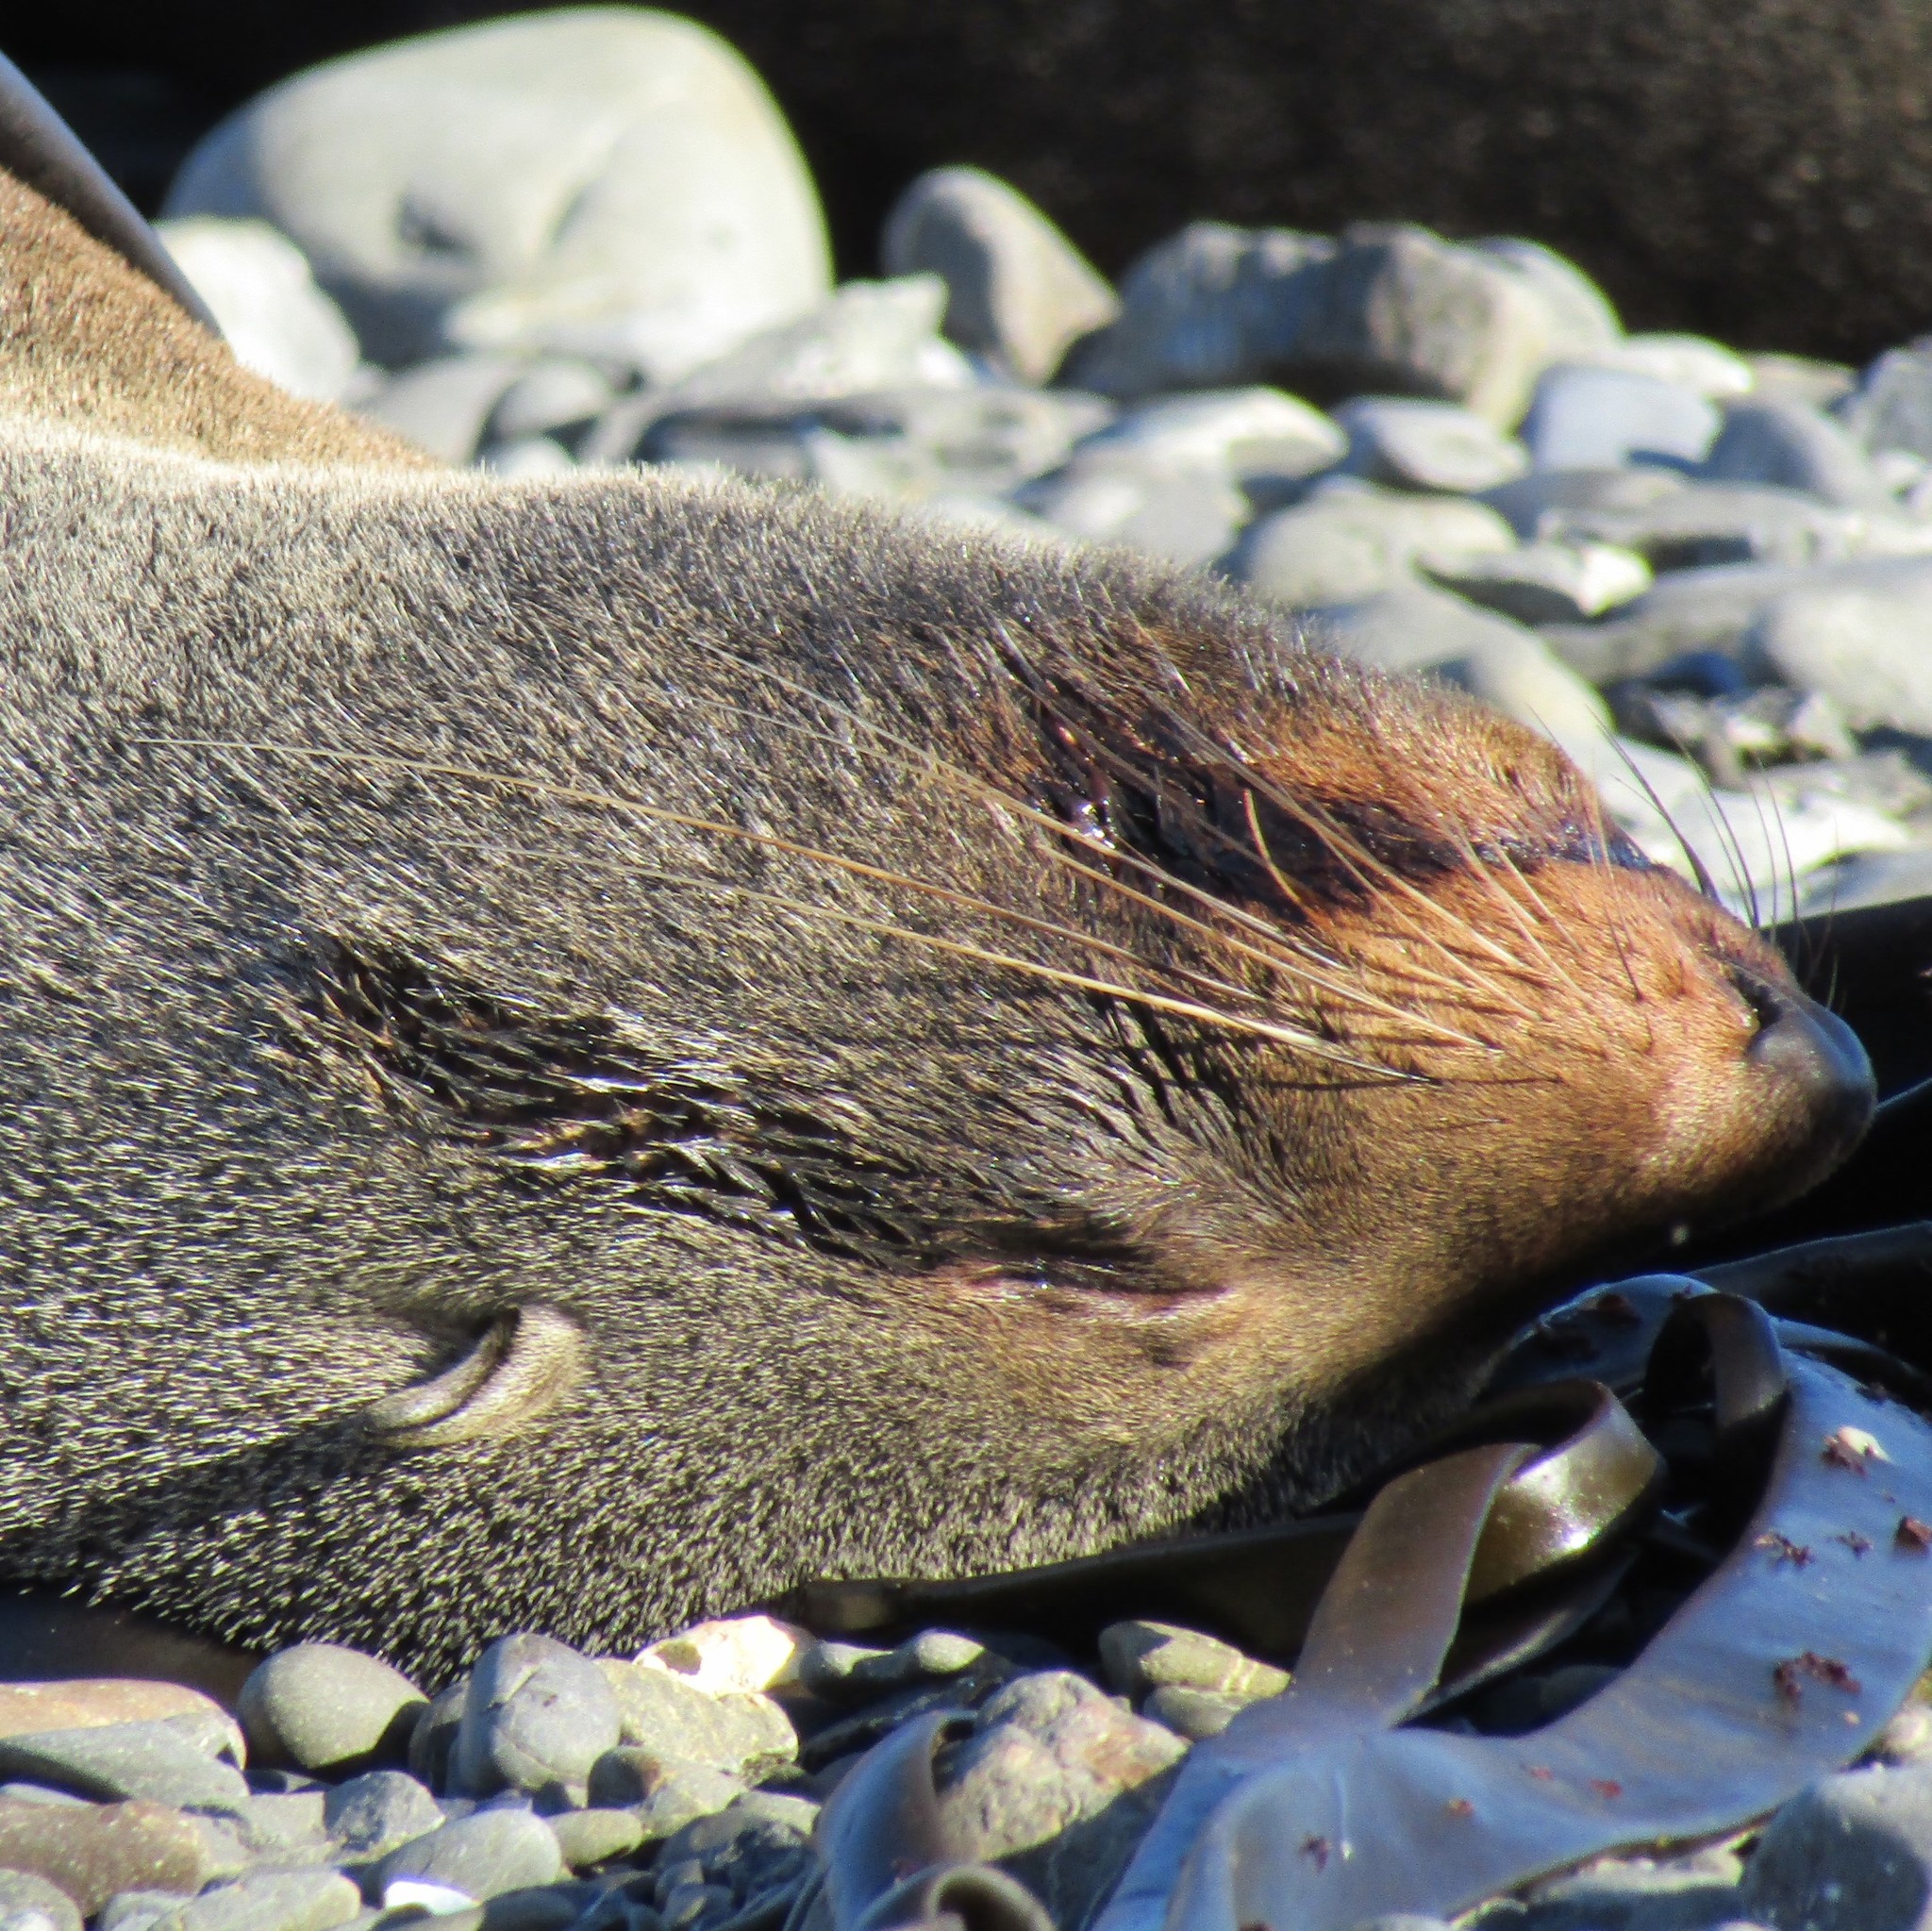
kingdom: Animalia
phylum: Chordata
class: Mammalia
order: Carnivora
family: Otariidae
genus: Arctocephalus
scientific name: Arctocephalus forsteri
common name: New zealand fur seal
